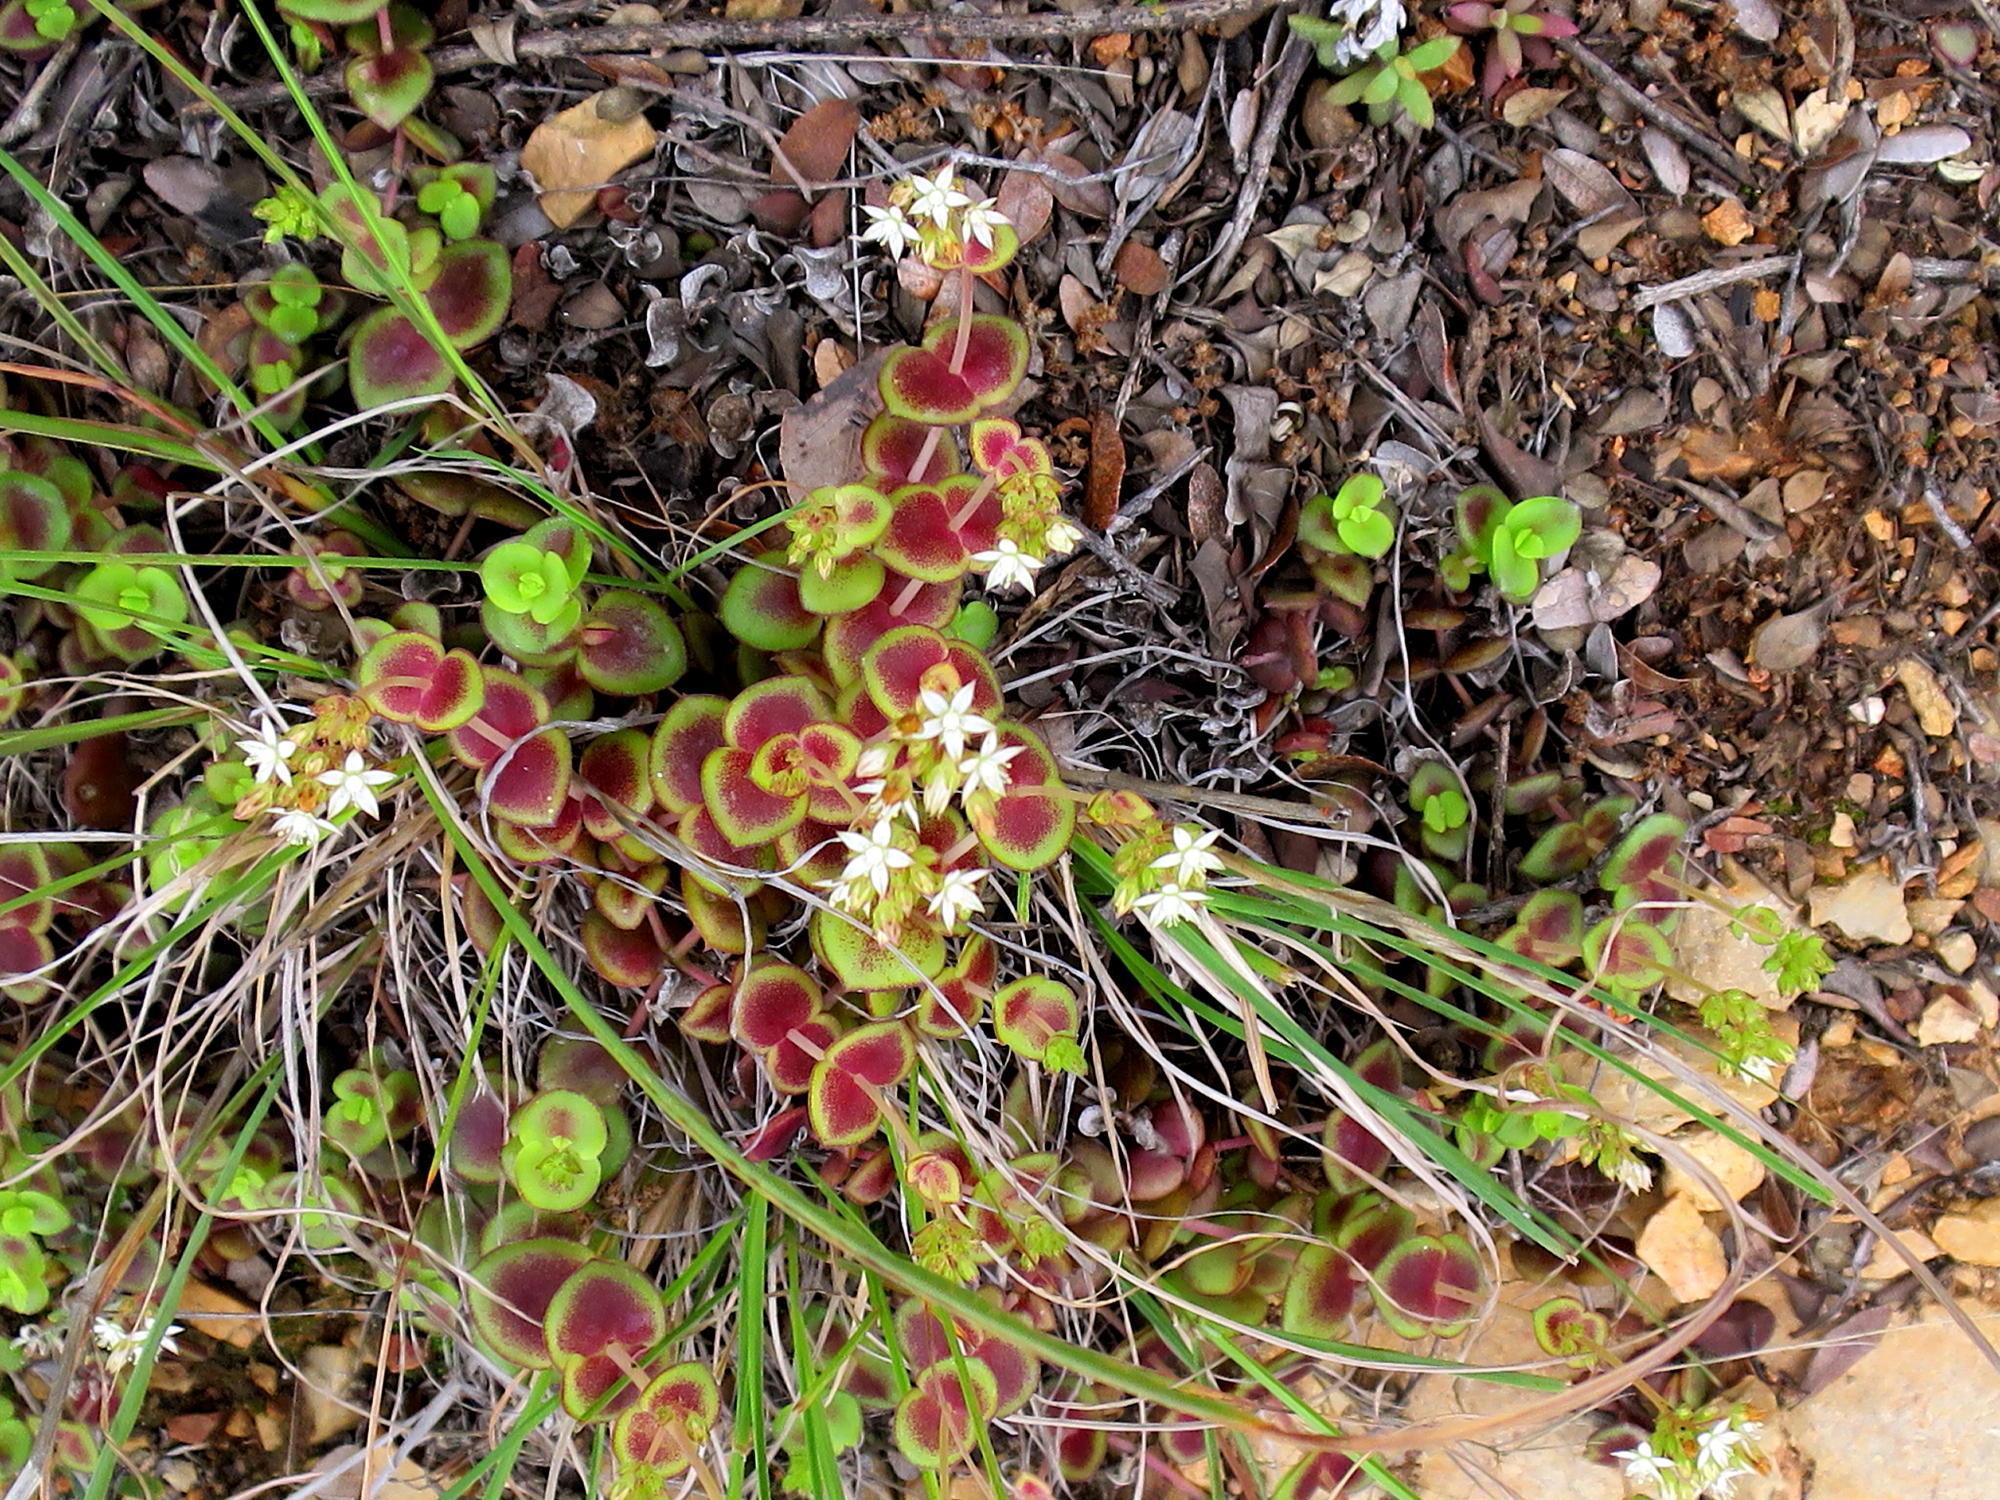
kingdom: Plantae
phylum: Tracheophyta
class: Magnoliopsida
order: Saxifragales
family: Crassulaceae
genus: Crassula
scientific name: Crassula pellucida
